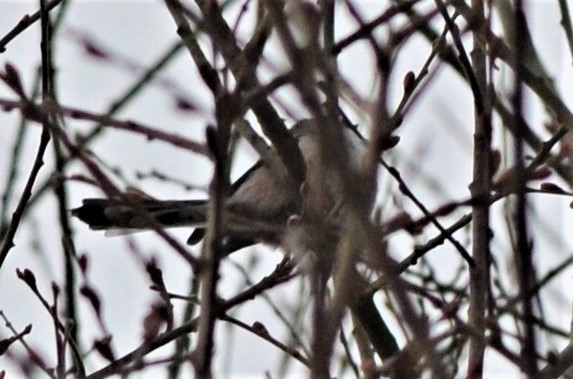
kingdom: Animalia
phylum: Chordata
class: Aves
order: Passeriformes
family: Aegithalidae
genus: Aegithalos
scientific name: Aegithalos caudatus
